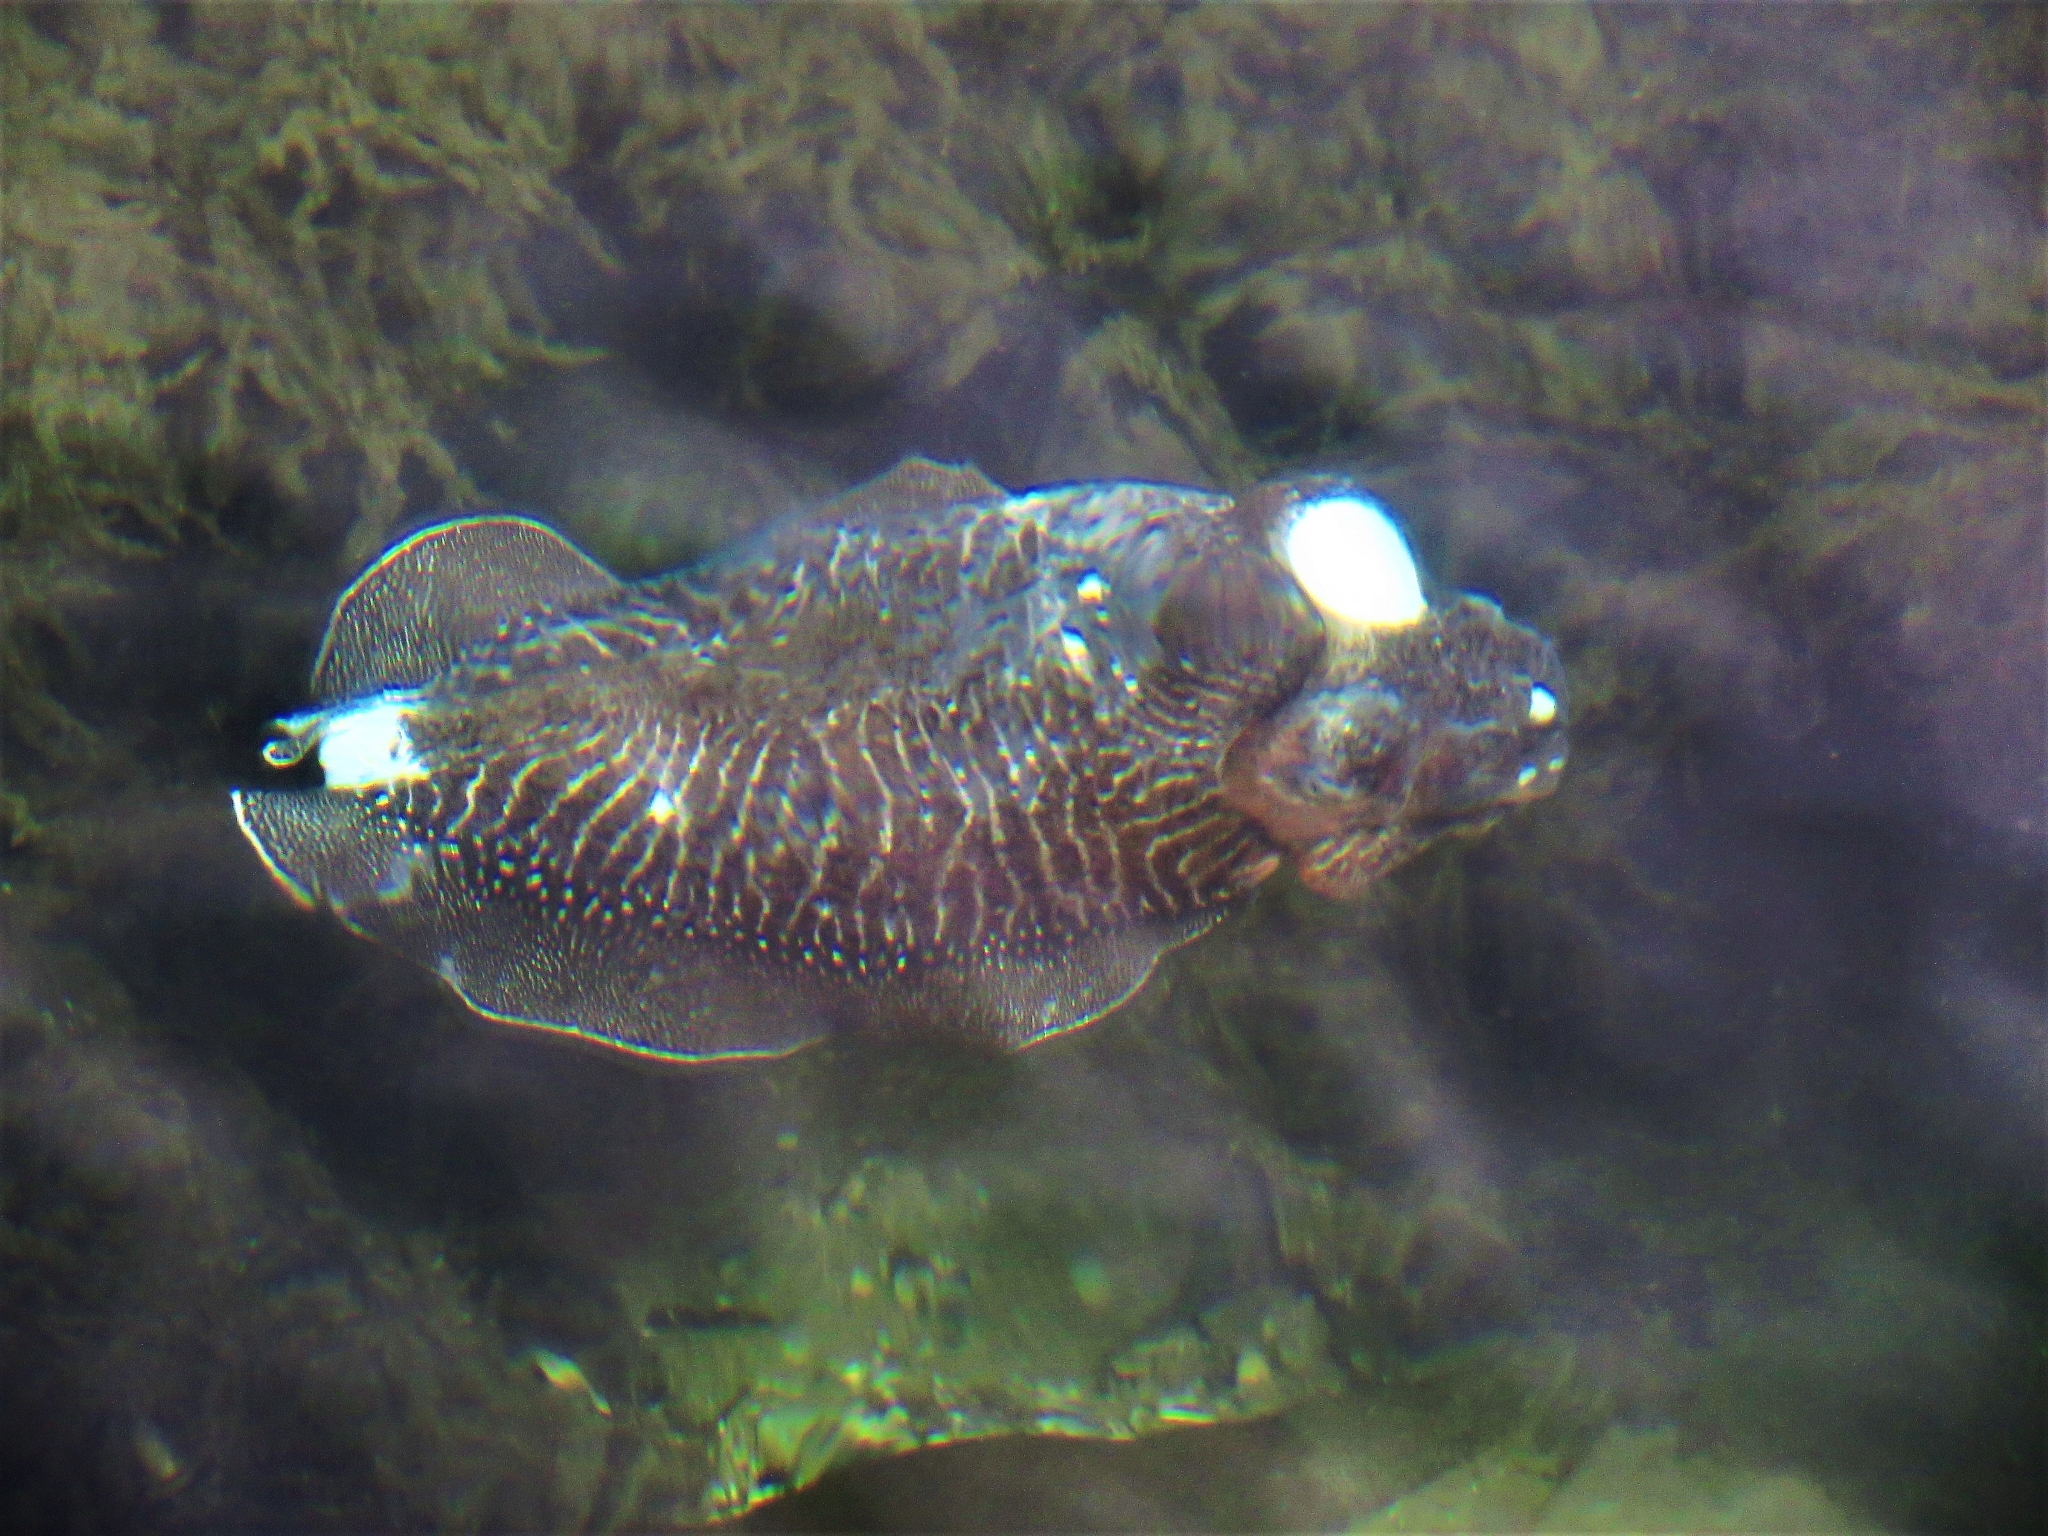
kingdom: Animalia
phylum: Mollusca
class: Cephalopoda
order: Sepiida
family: Sepiidae
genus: Sepia
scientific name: Sepia officinalis
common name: Common cuttlefish
